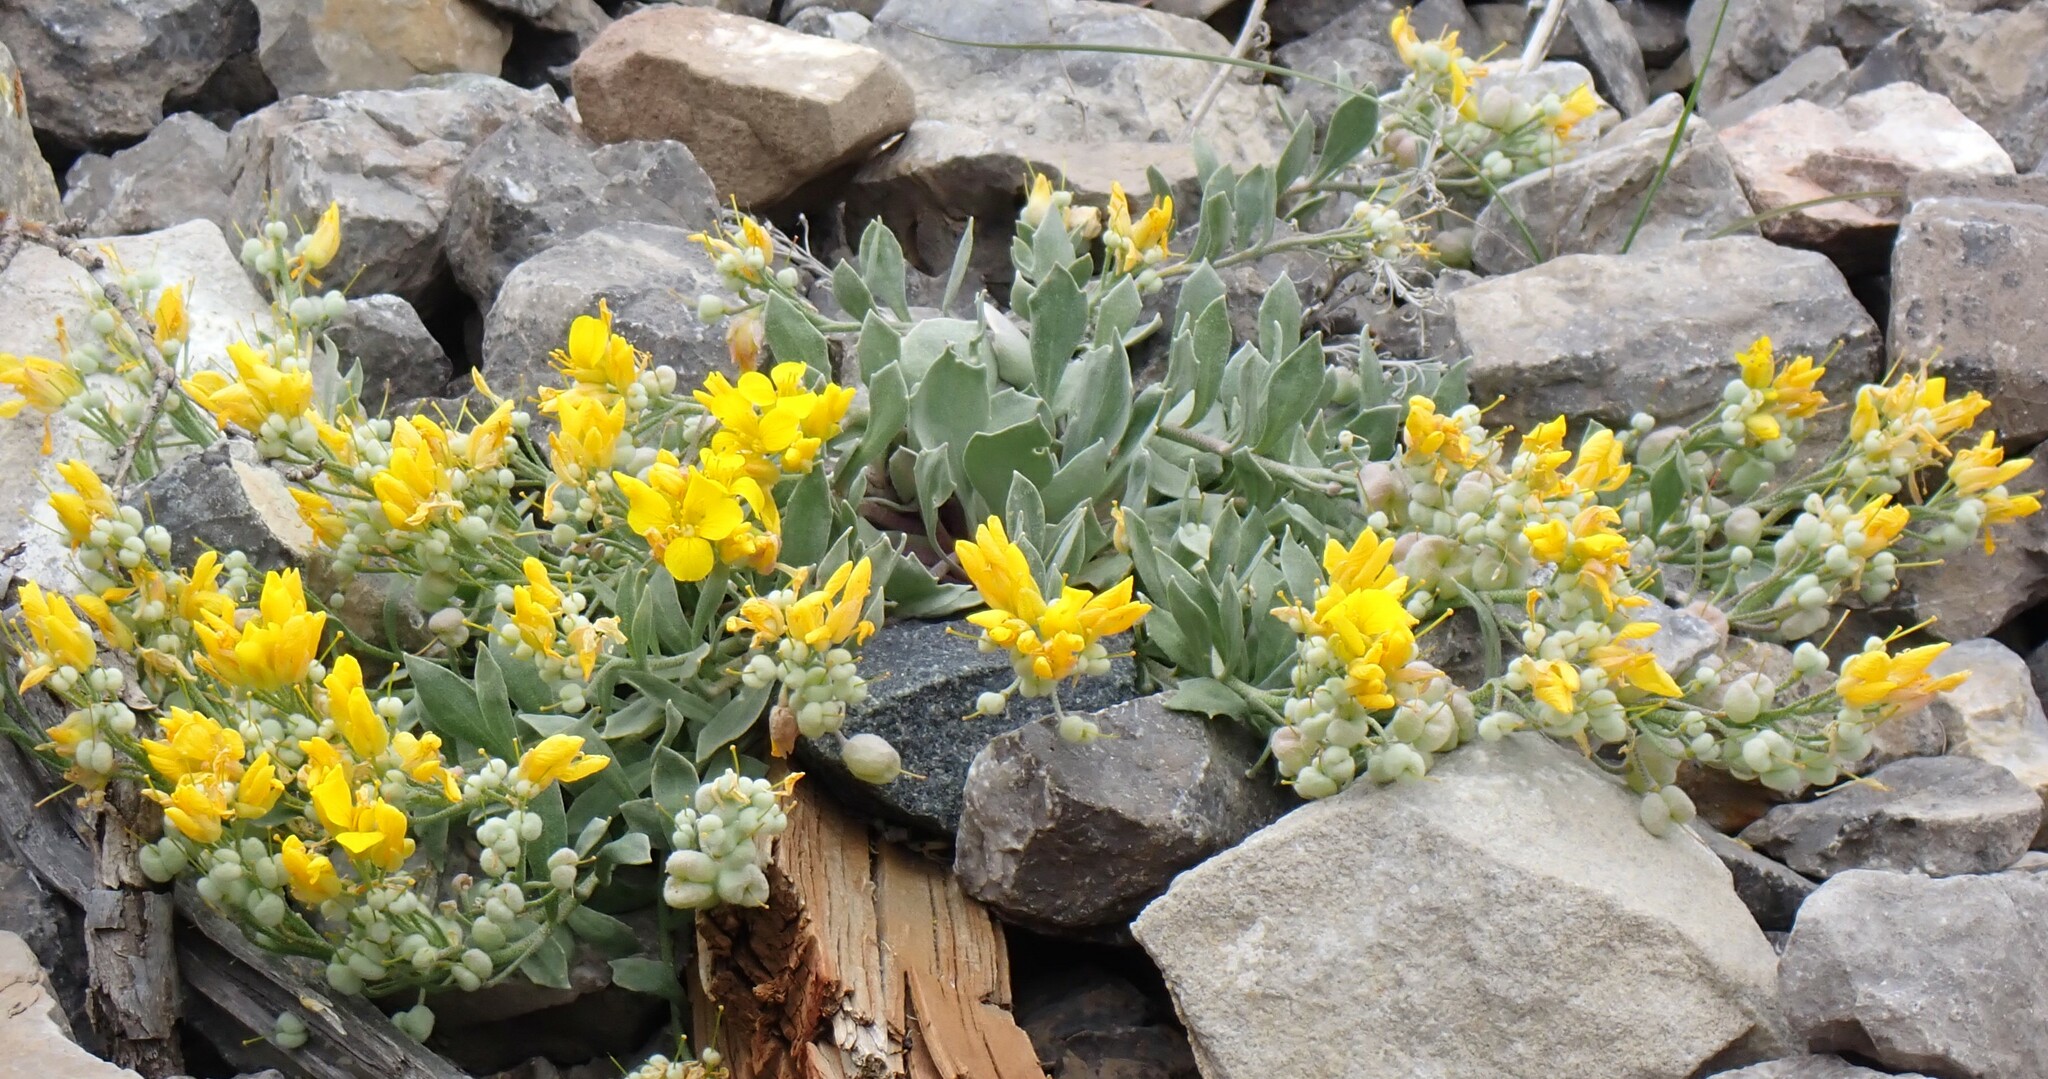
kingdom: Plantae
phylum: Tracheophyta
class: Magnoliopsida
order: Brassicales
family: Brassicaceae
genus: Physaria
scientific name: Physaria didymocarpa
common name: Common twinpod
